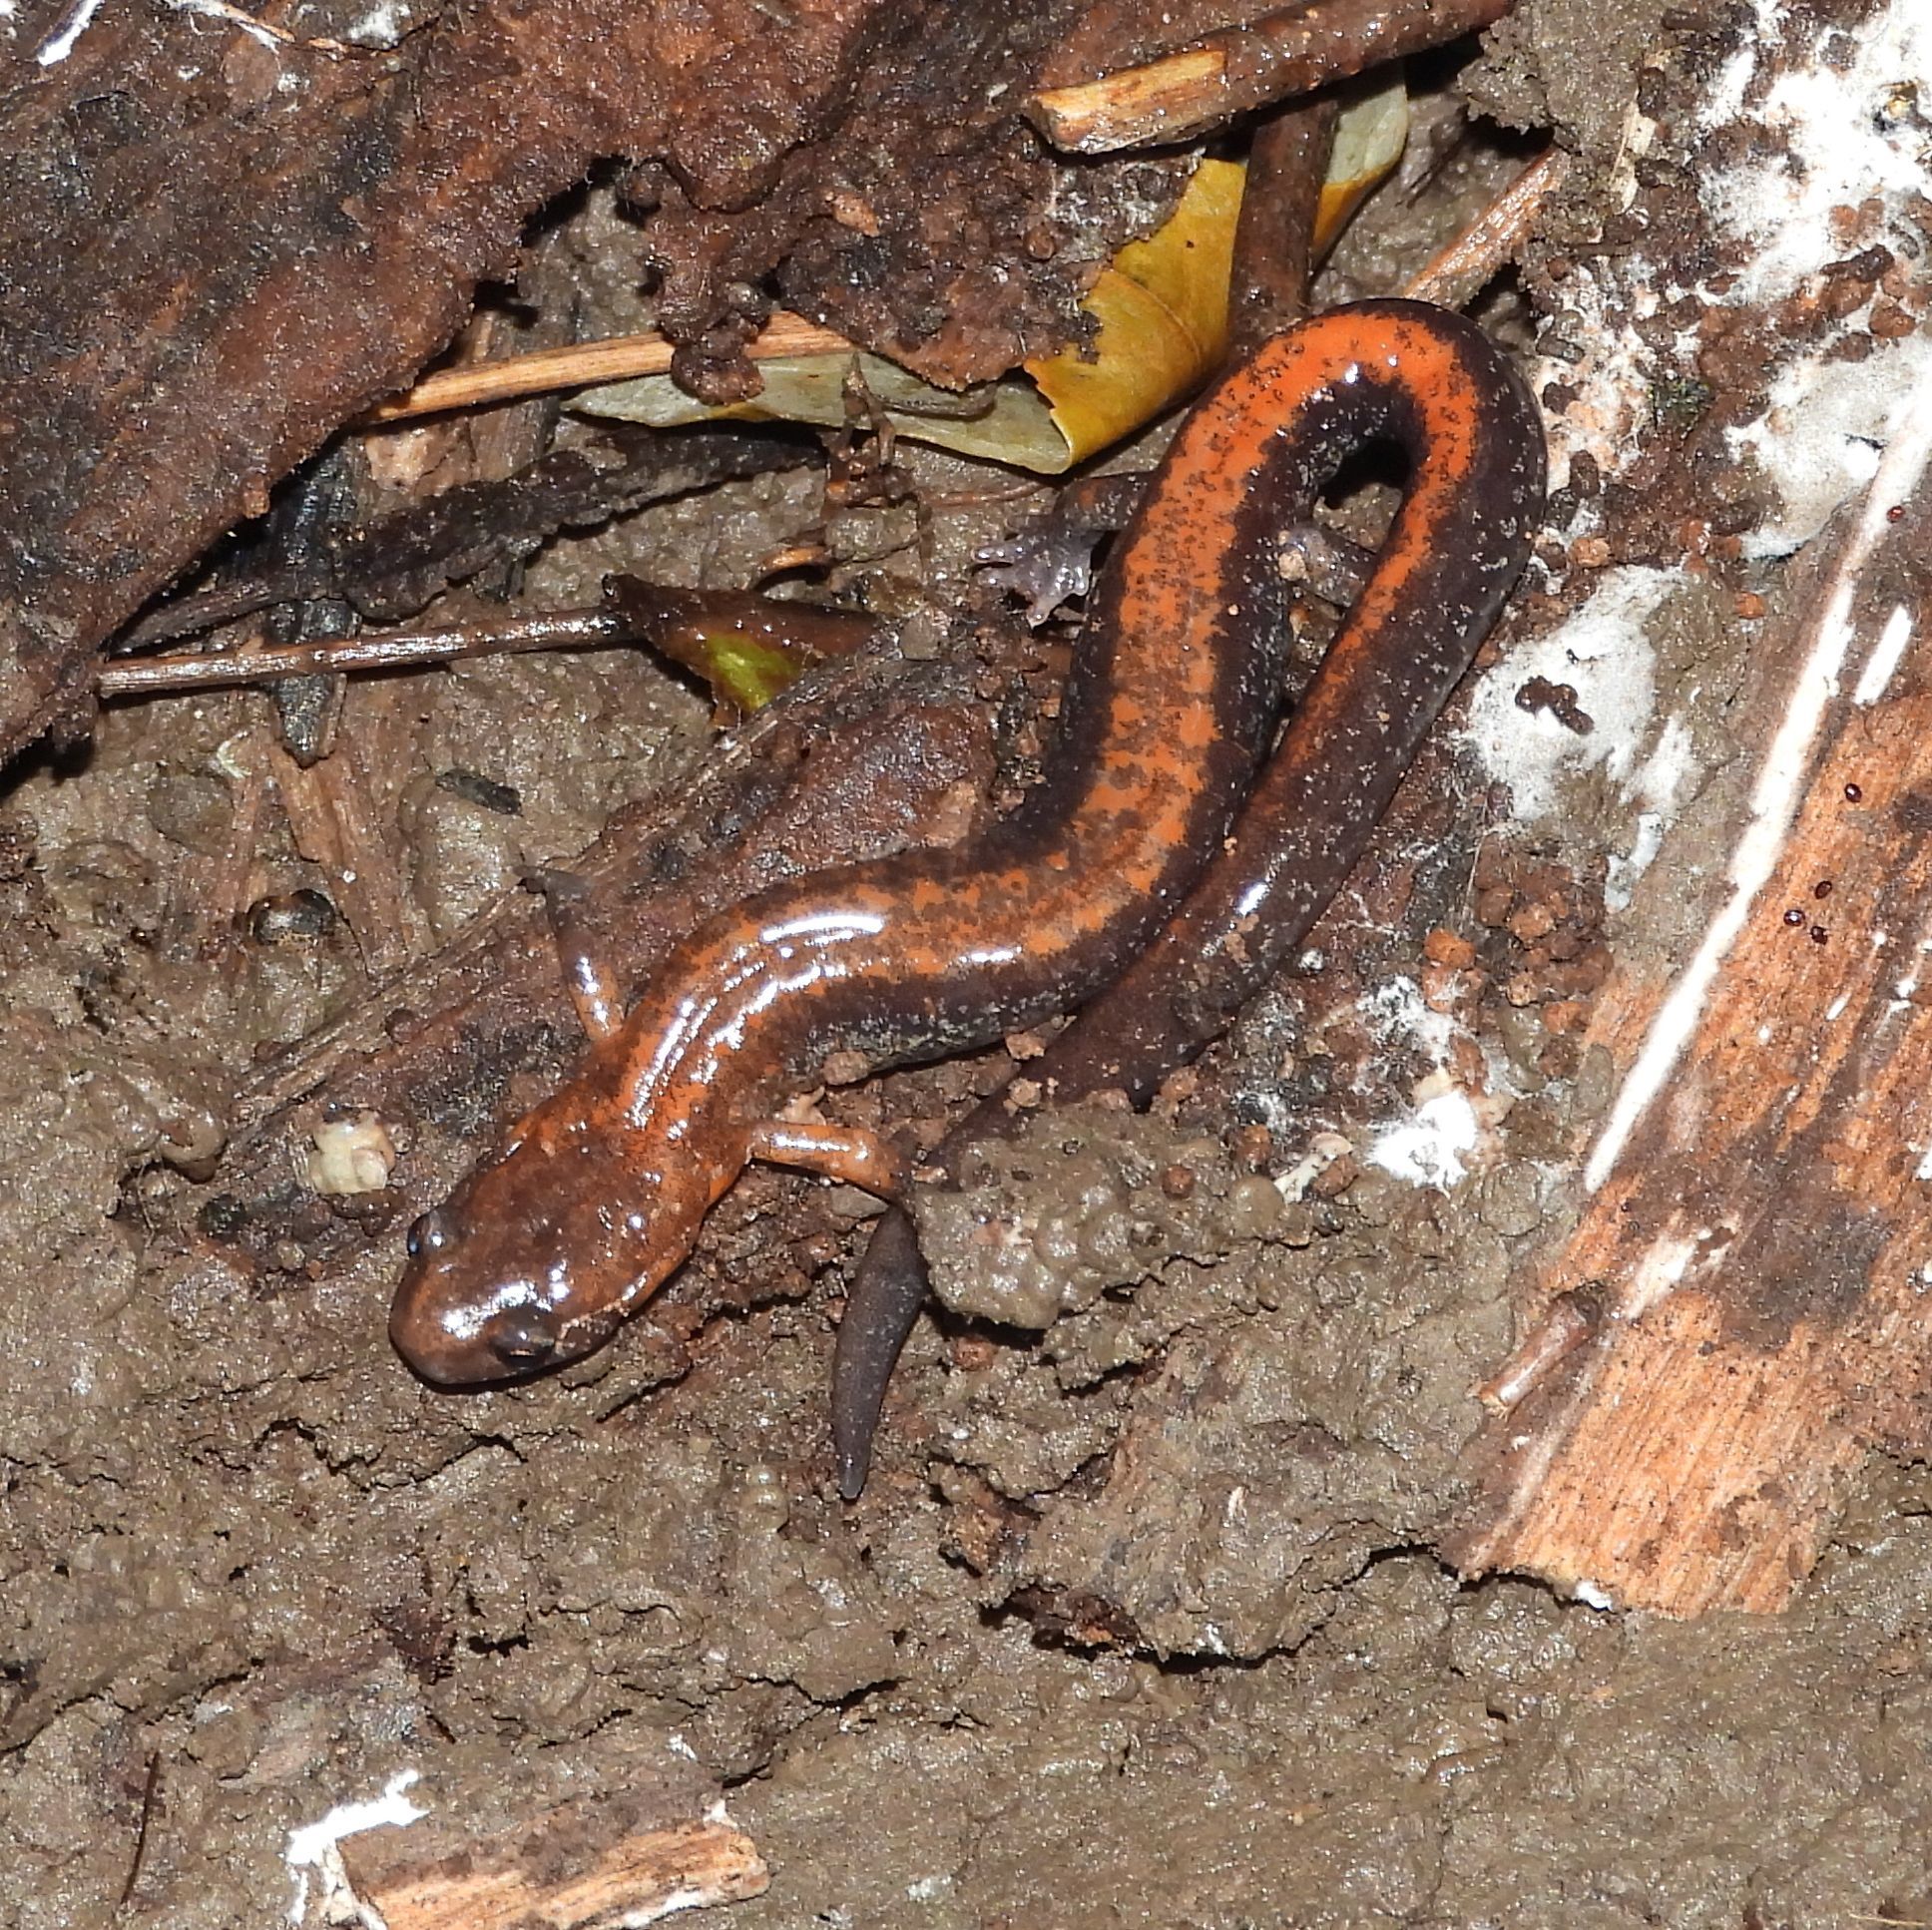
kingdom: Animalia
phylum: Chordata
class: Amphibia
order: Caudata
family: Plethodontidae
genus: Plethodon
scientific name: Plethodon cinereus
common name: Redback salamander
